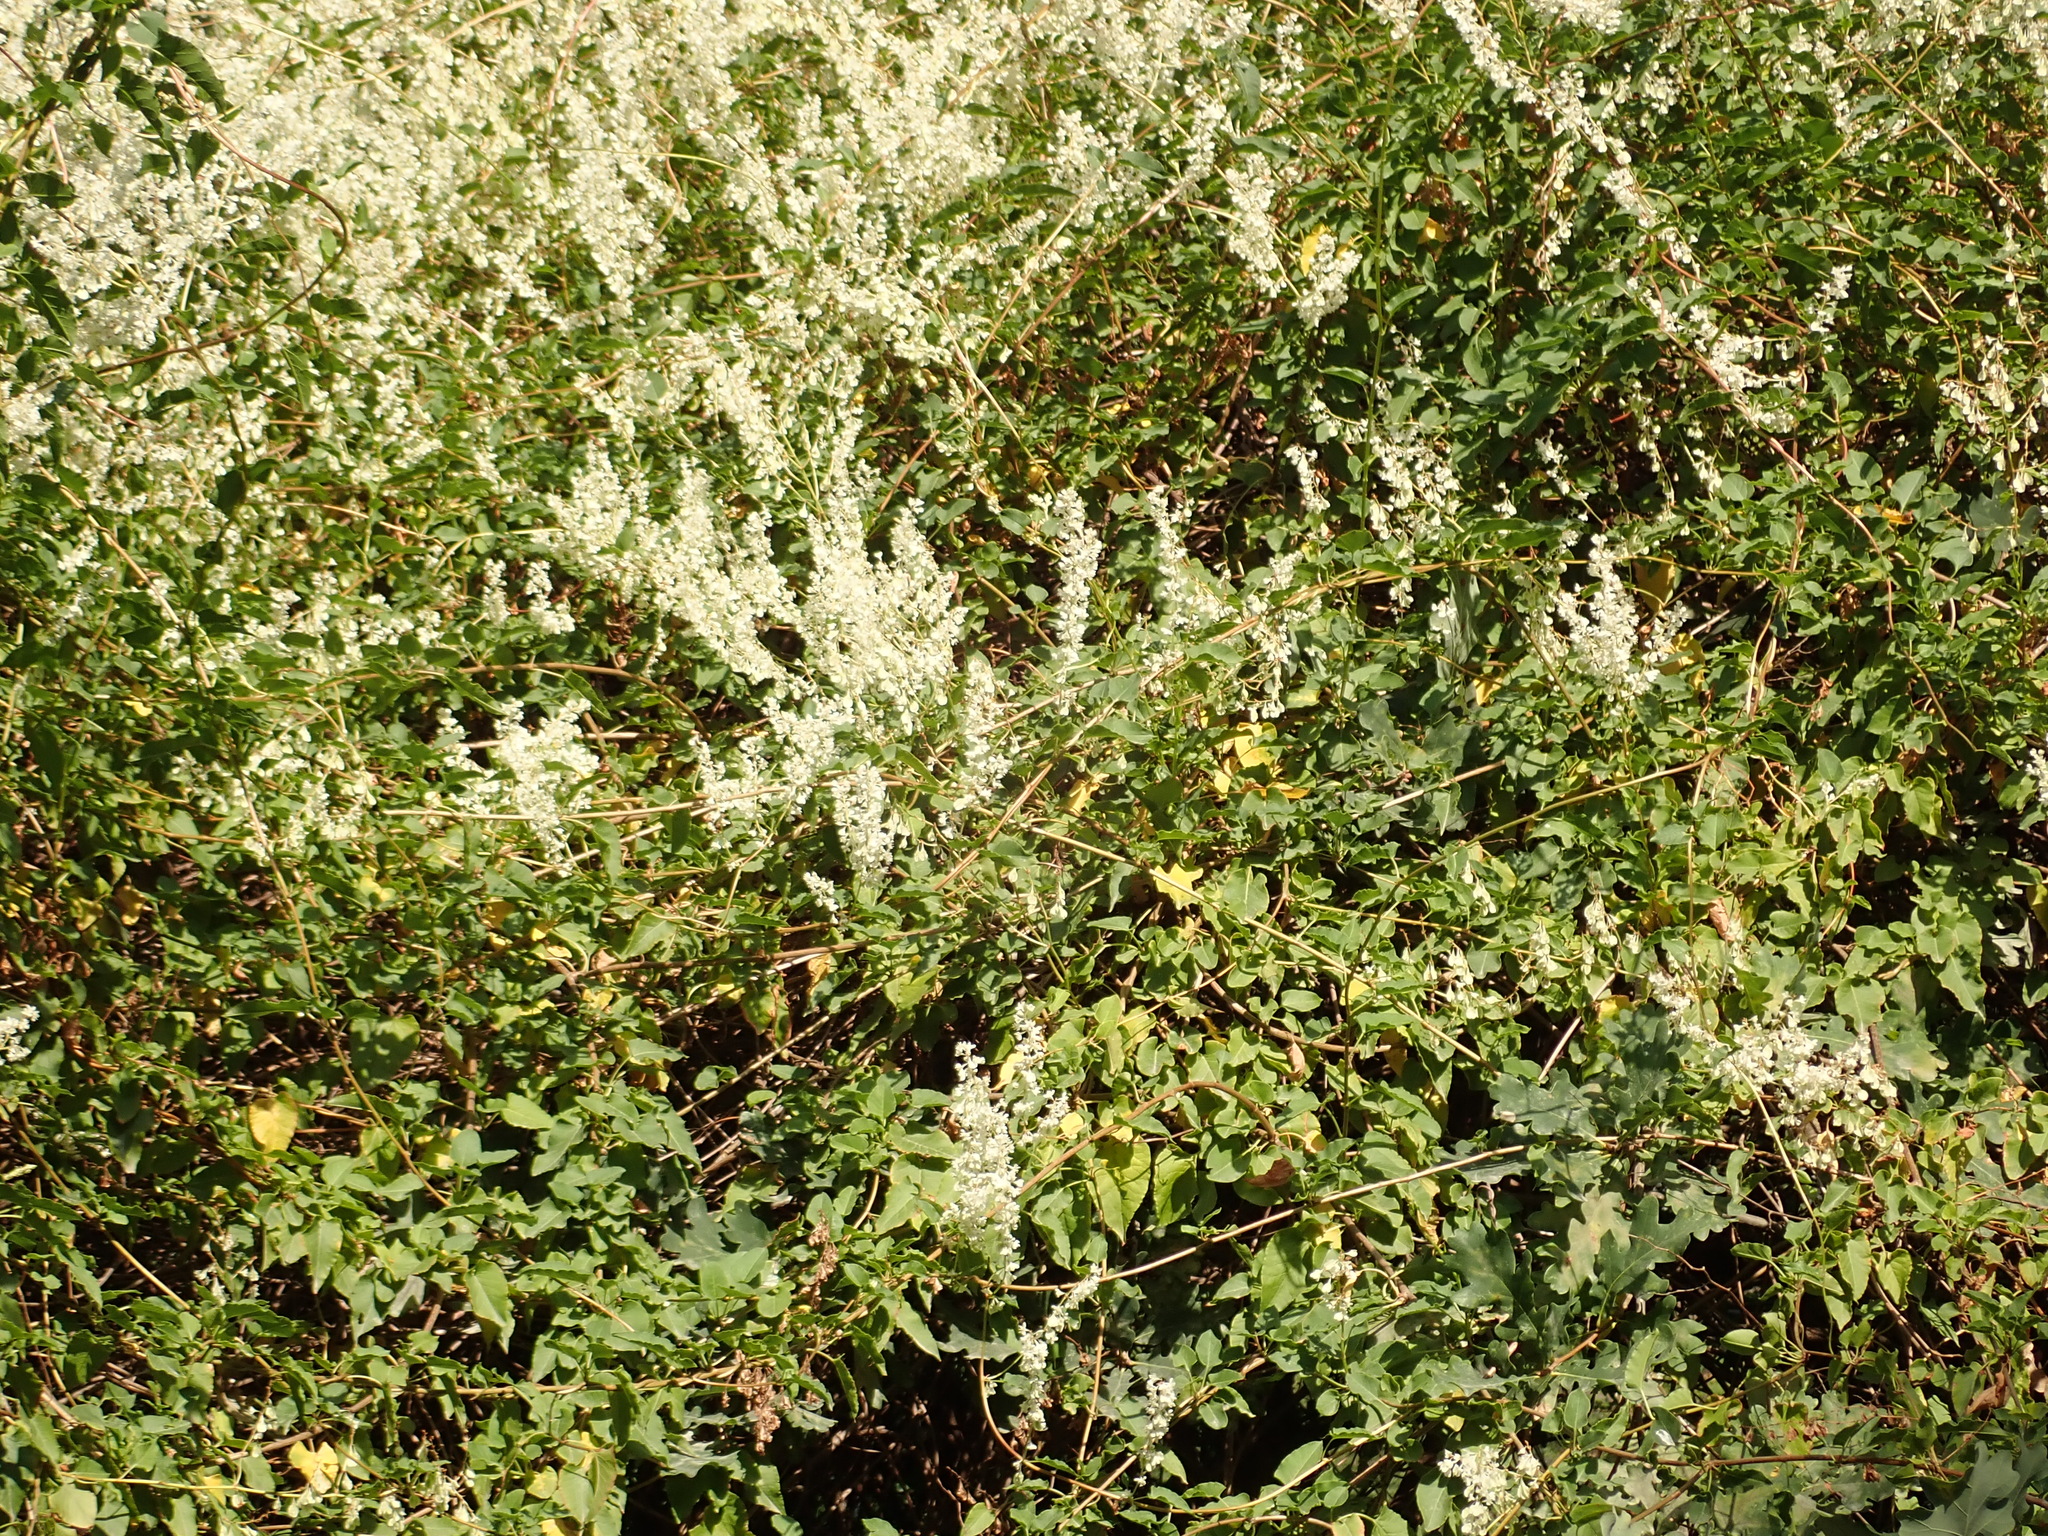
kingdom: Plantae
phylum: Tracheophyta
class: Magnoliopsida
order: Caryophyllales
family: Polygonaceae
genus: Fallopia
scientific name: Fallopia baldschuanica
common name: Russian-vine
